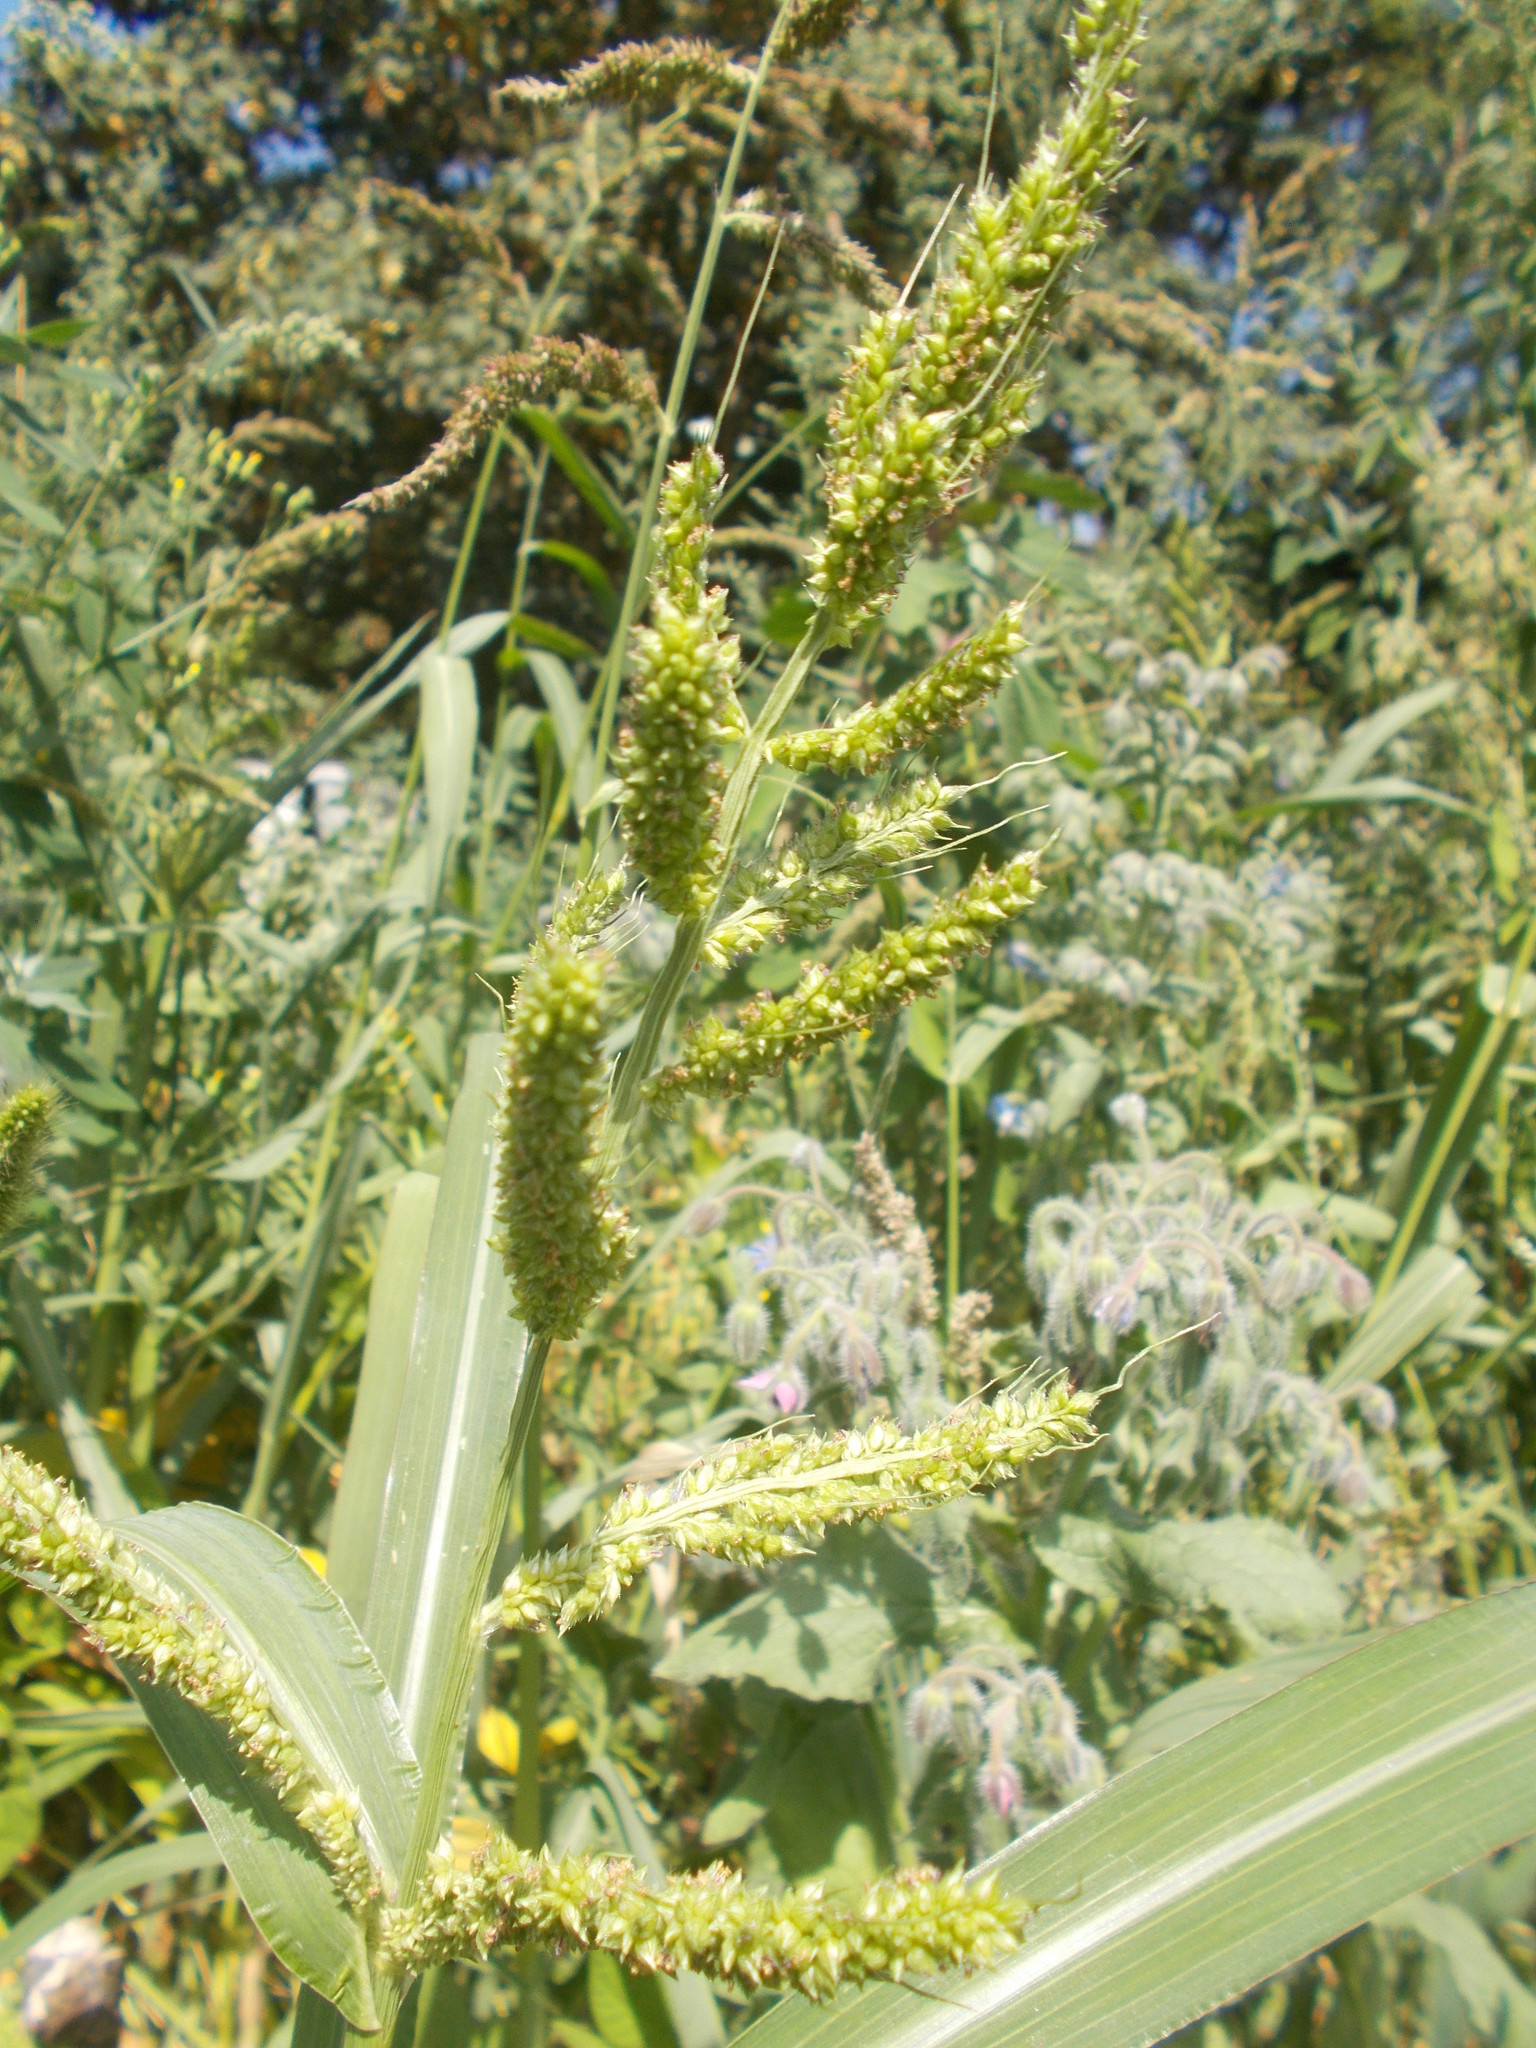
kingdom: Plantae
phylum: Tracheophyta
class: Liliopsida
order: Poales
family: Poaceae
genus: Echinochloa
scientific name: Echinochloa crus-galli
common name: Cockspur
